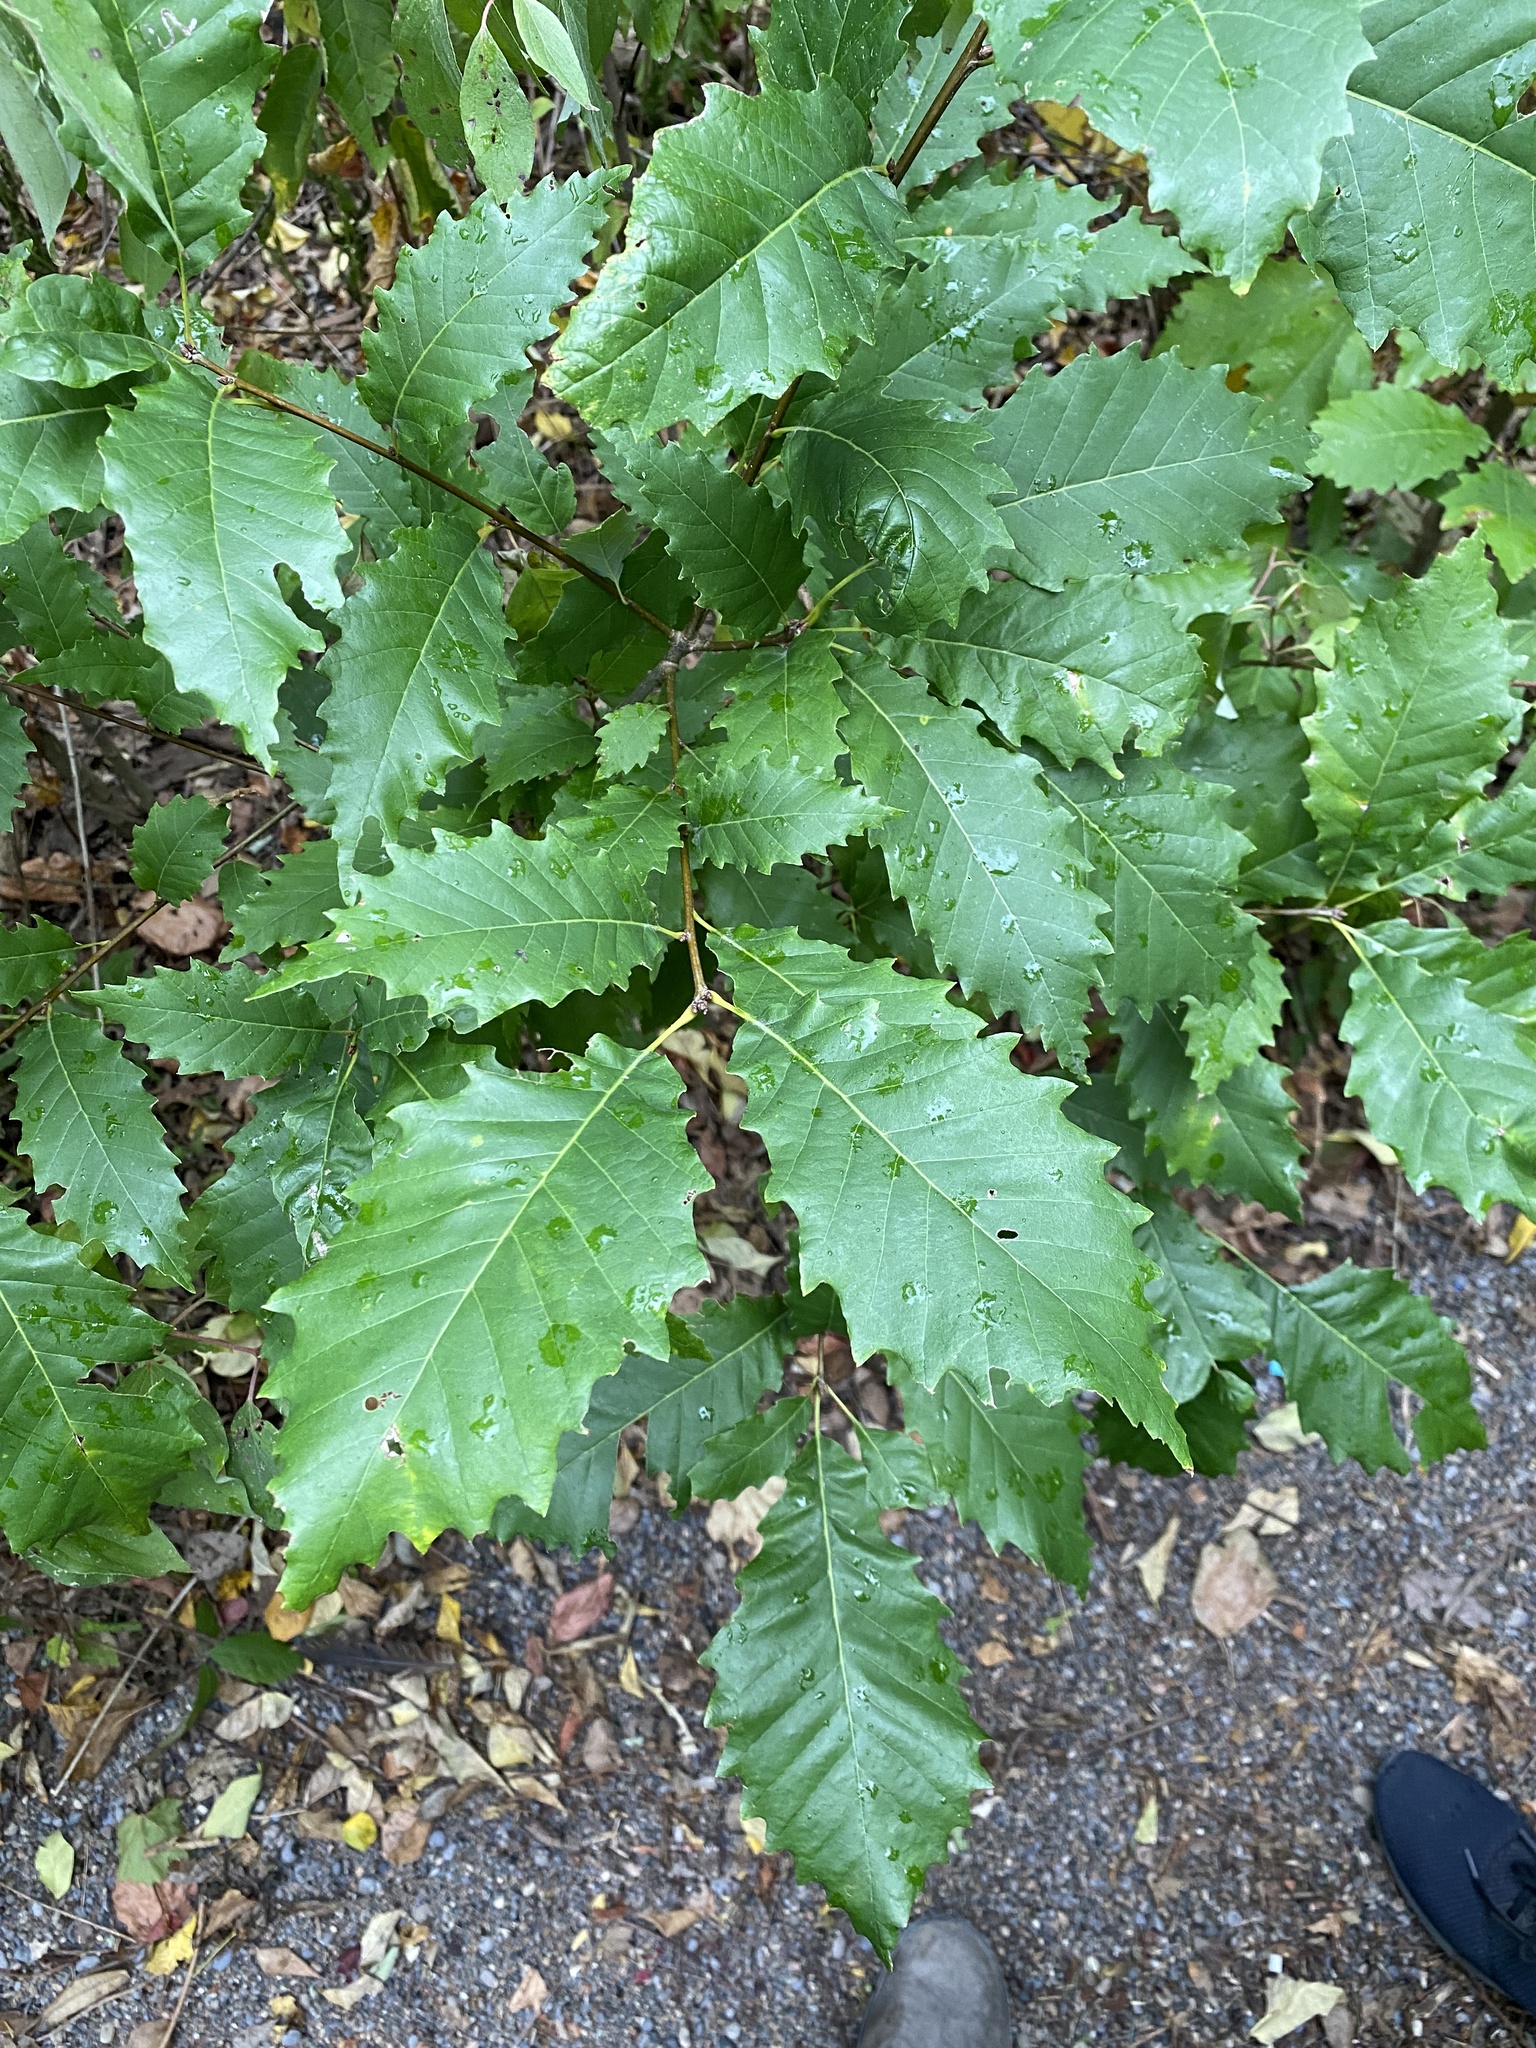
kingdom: Plantae
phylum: Tracheophyta
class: Magnoliopsida
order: Fagales
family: Fagaceae
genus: Quercus
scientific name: Quercus muehlenbergii
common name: Chinkapin oak
